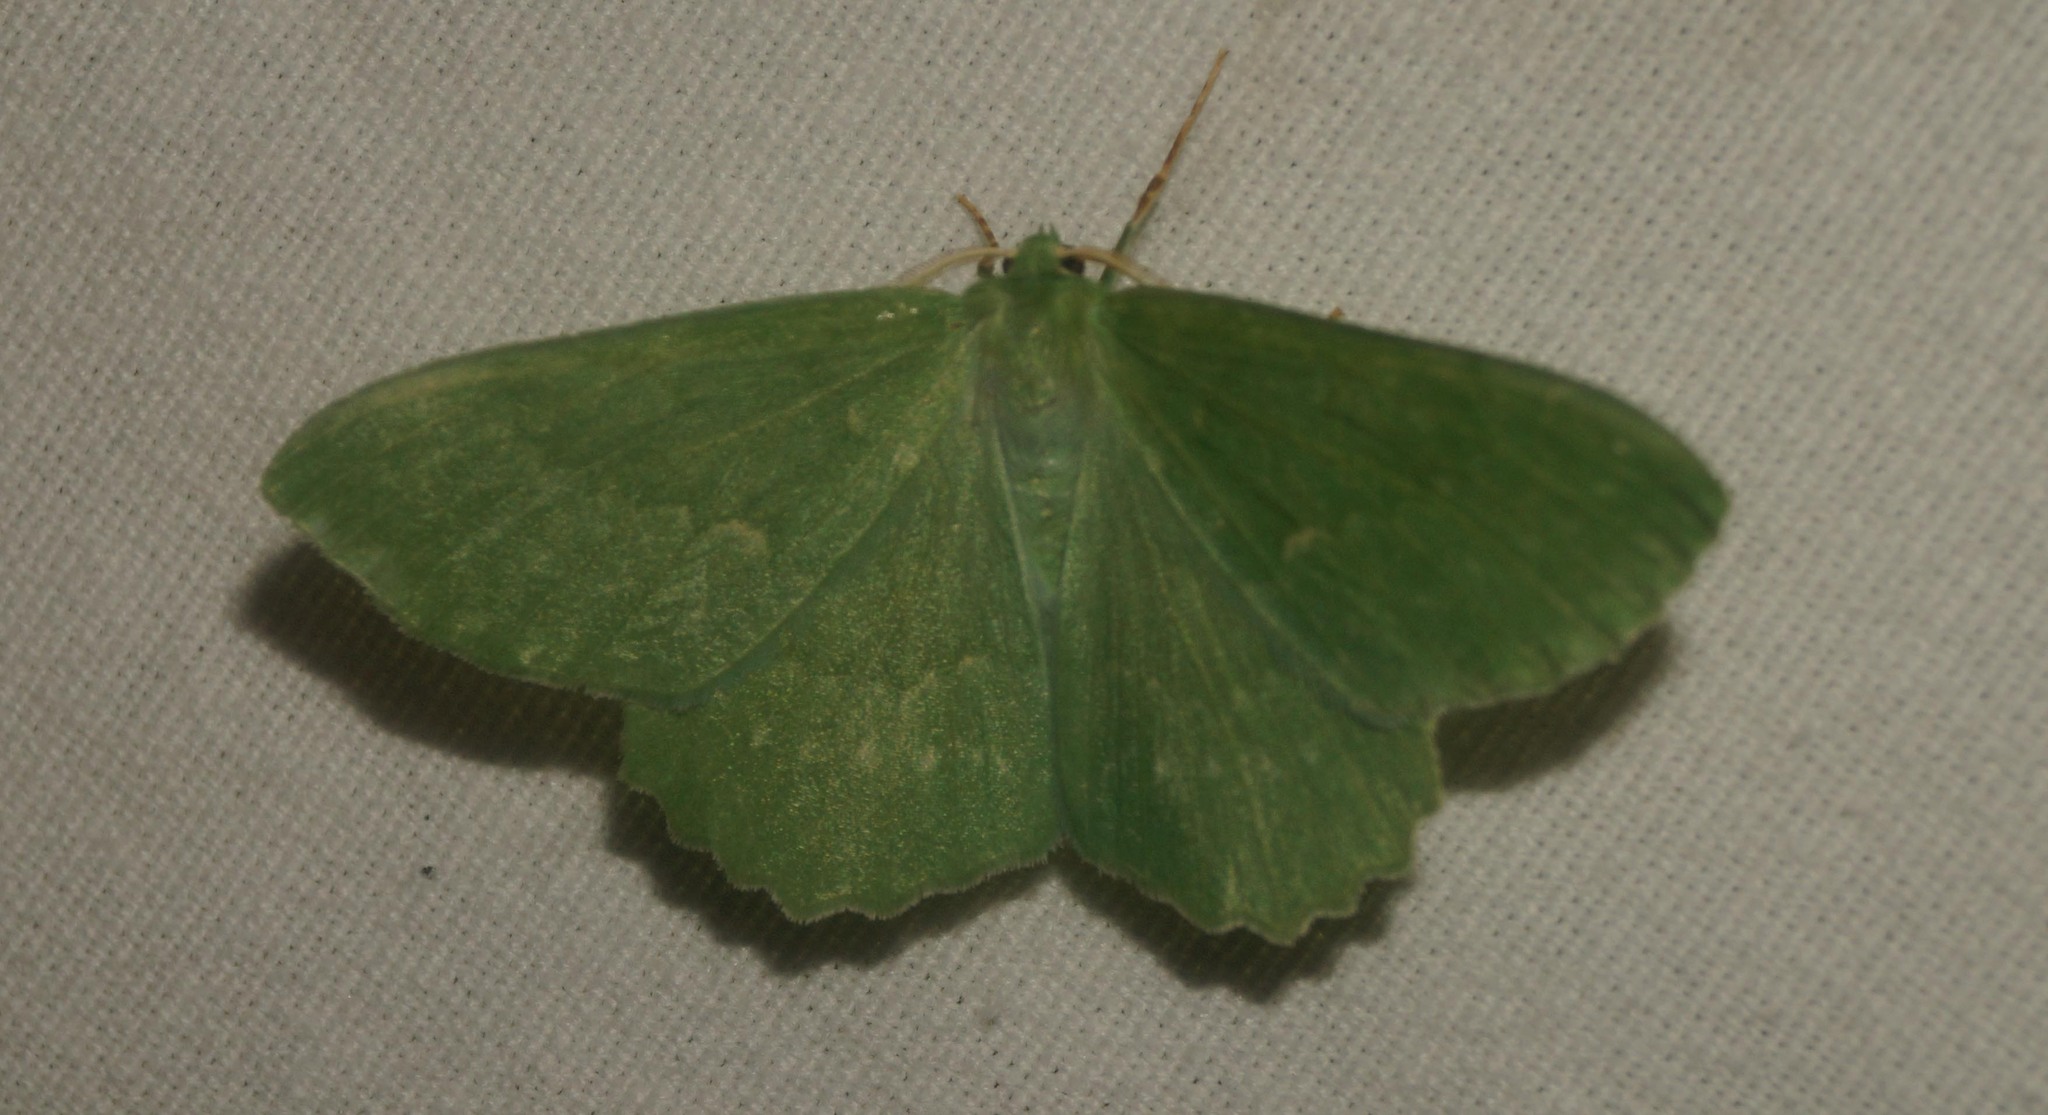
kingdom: Animalia
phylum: Arthropoda
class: Insecta
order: Lepidoptera
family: Geometridae
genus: Geometra
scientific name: Geometra papilionaria
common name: Large emerald
